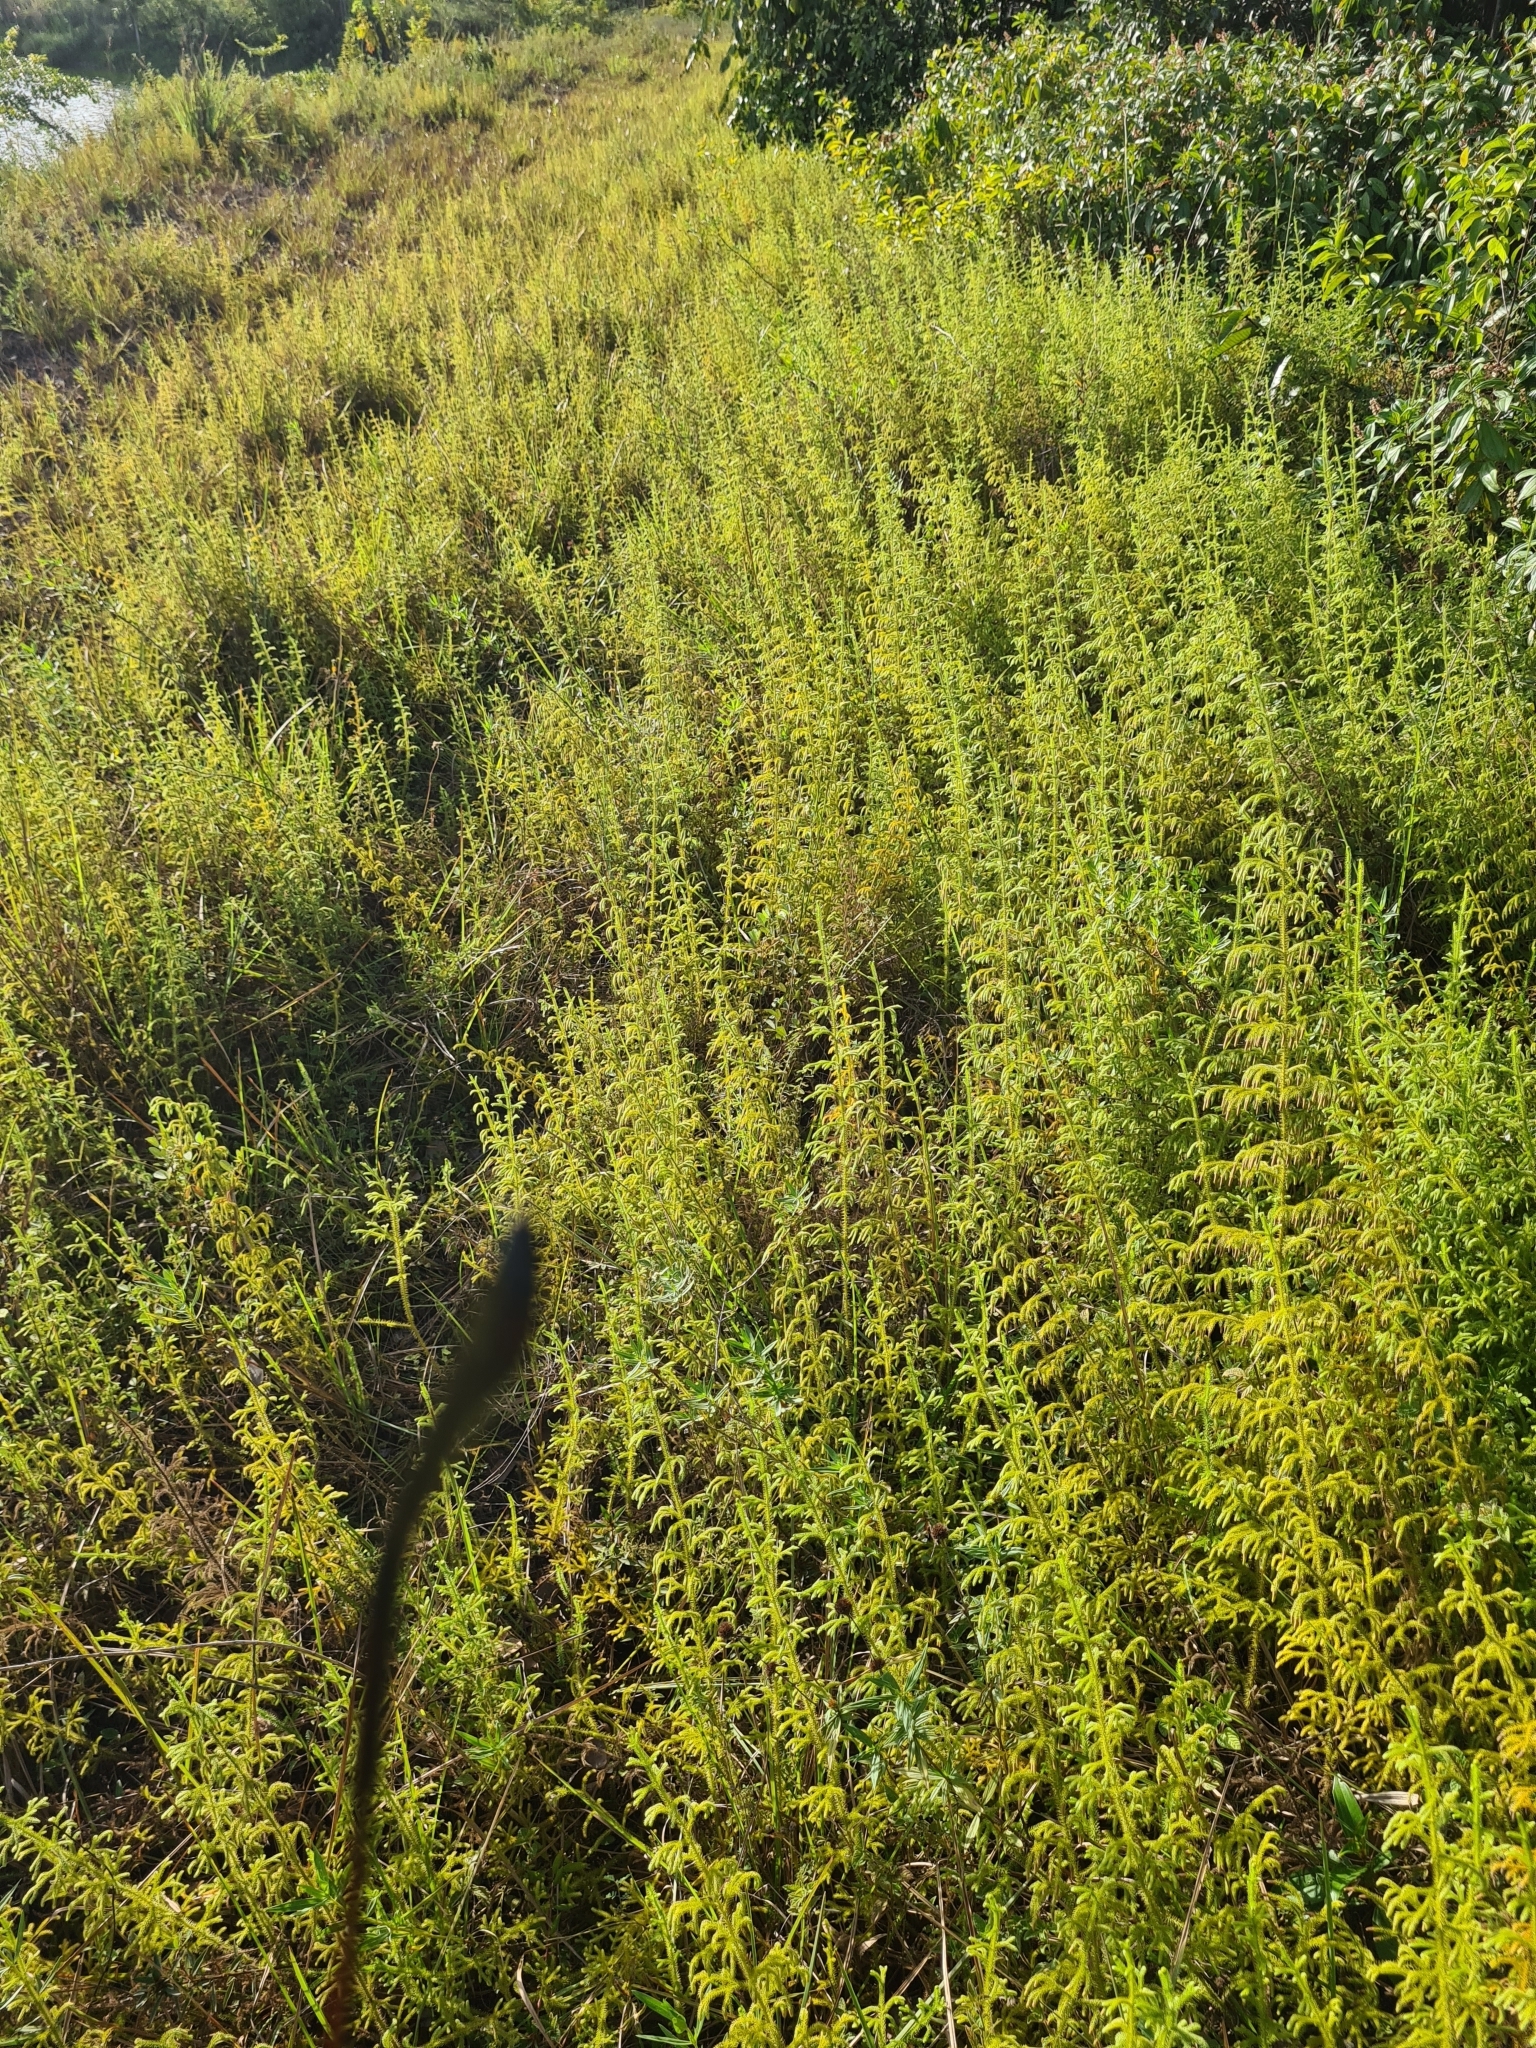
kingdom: Plantae
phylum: Tracheophyta
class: Lycopodiopsida
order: Lycopodiales
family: Lycopodiaceae
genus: Palhinhaea
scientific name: Palhinhaea cernua
